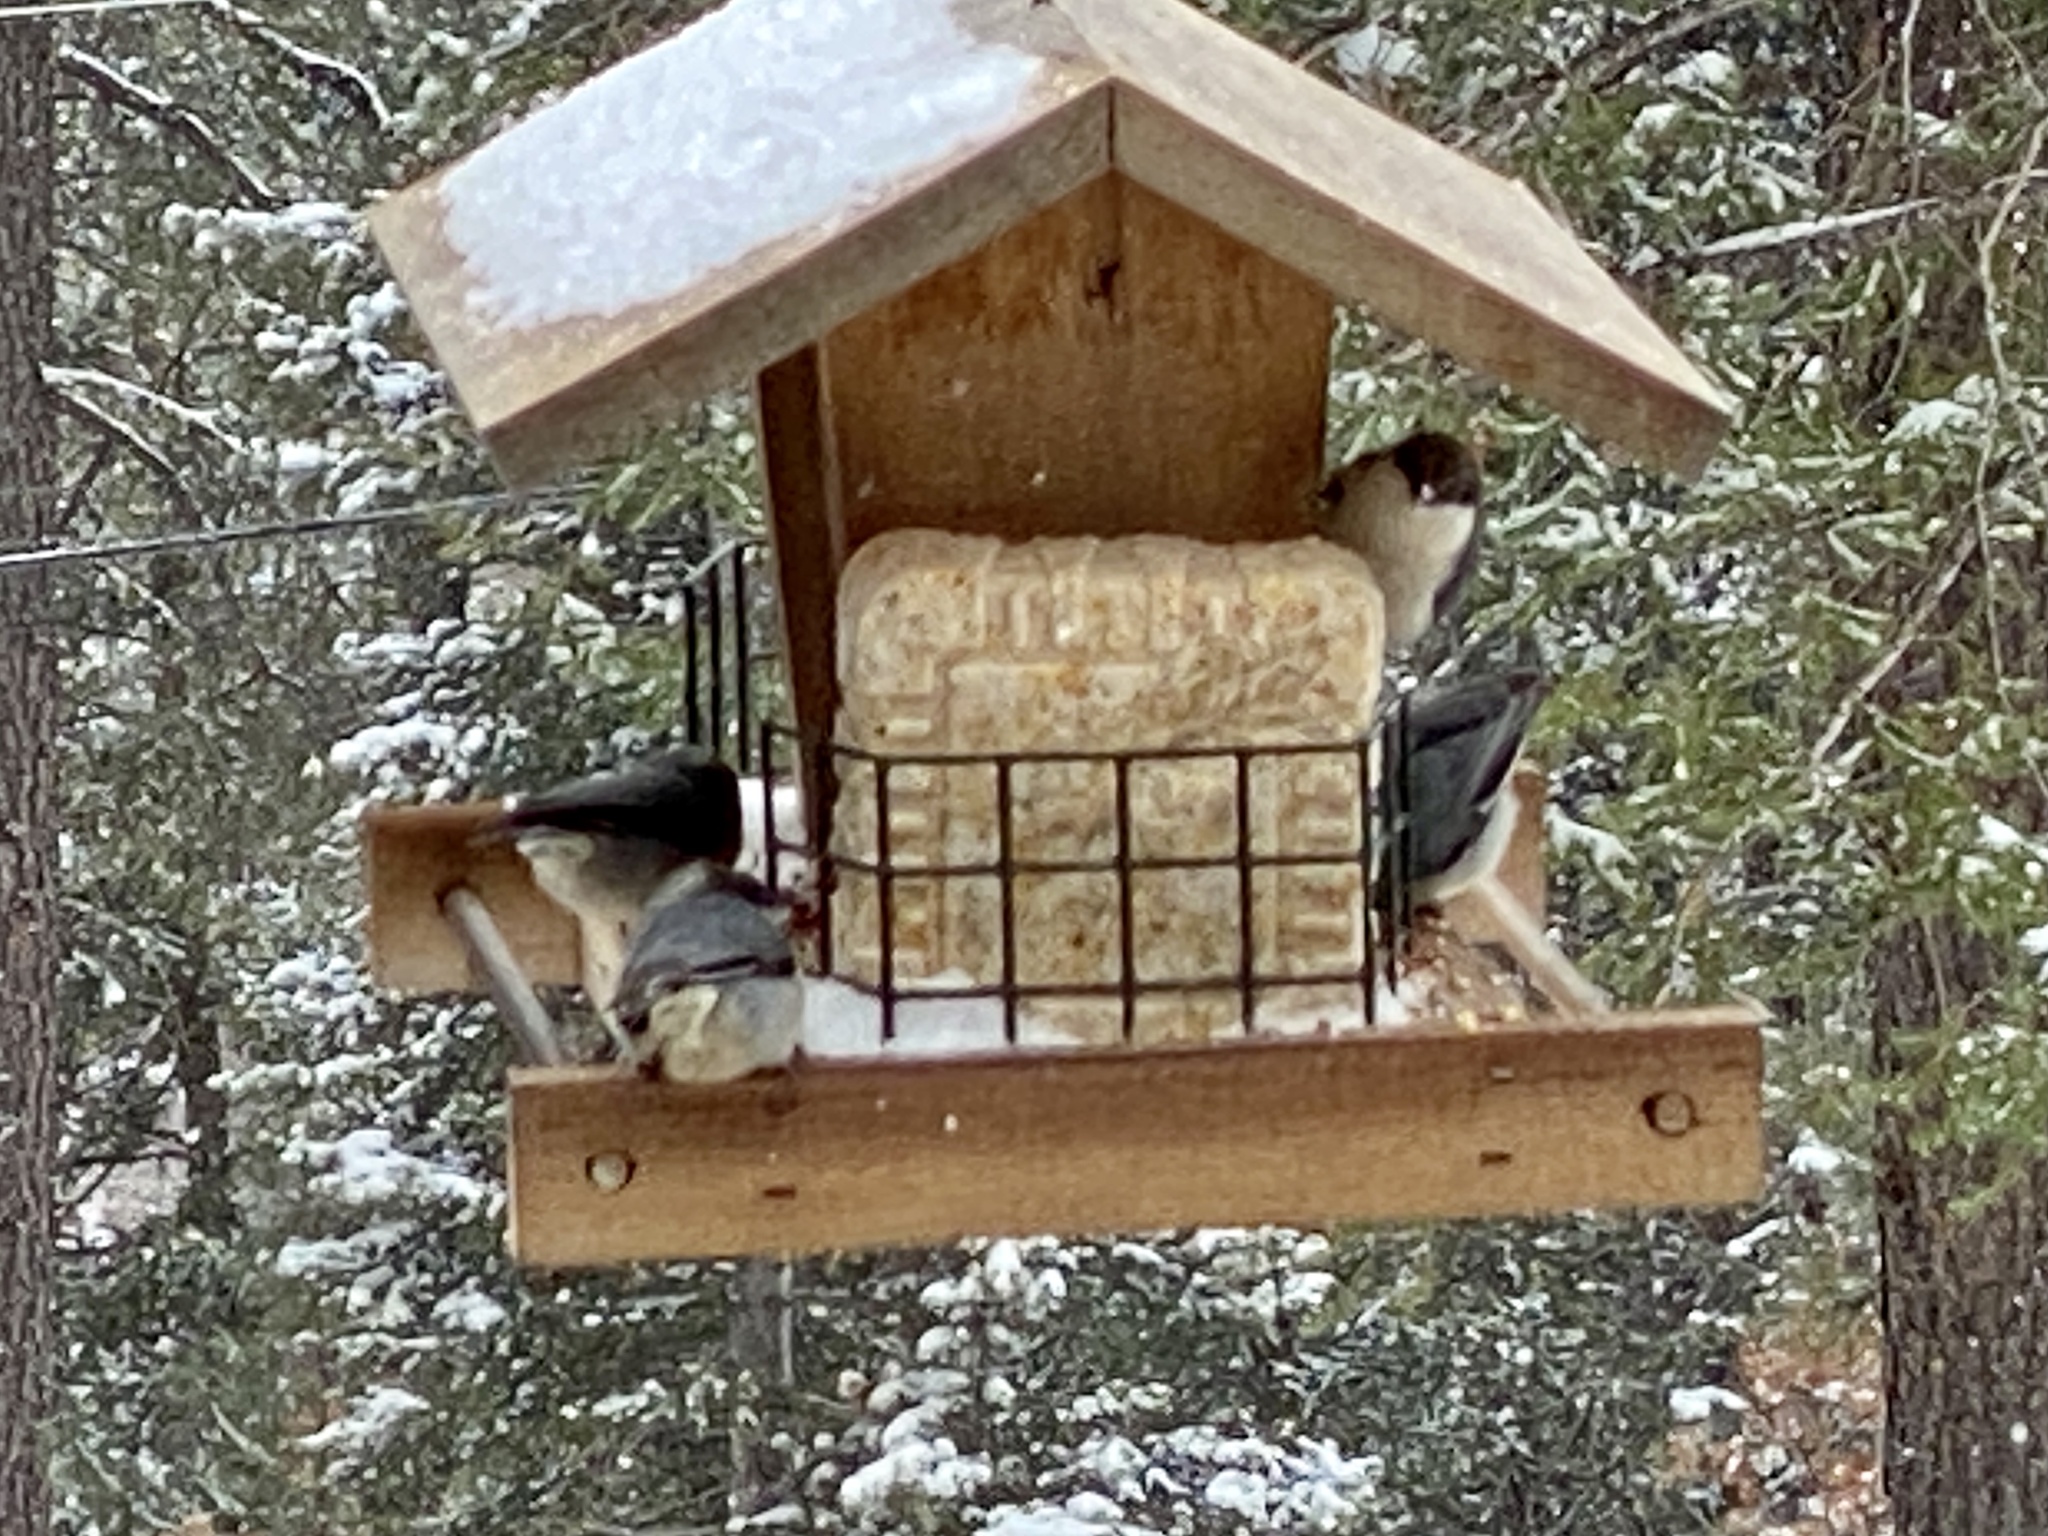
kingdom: Animalia
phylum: Chordata
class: Aves
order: Passeriformes
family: Sittidae
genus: Sitta
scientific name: Sitta pygmaea
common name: Pygmy nuthatch
